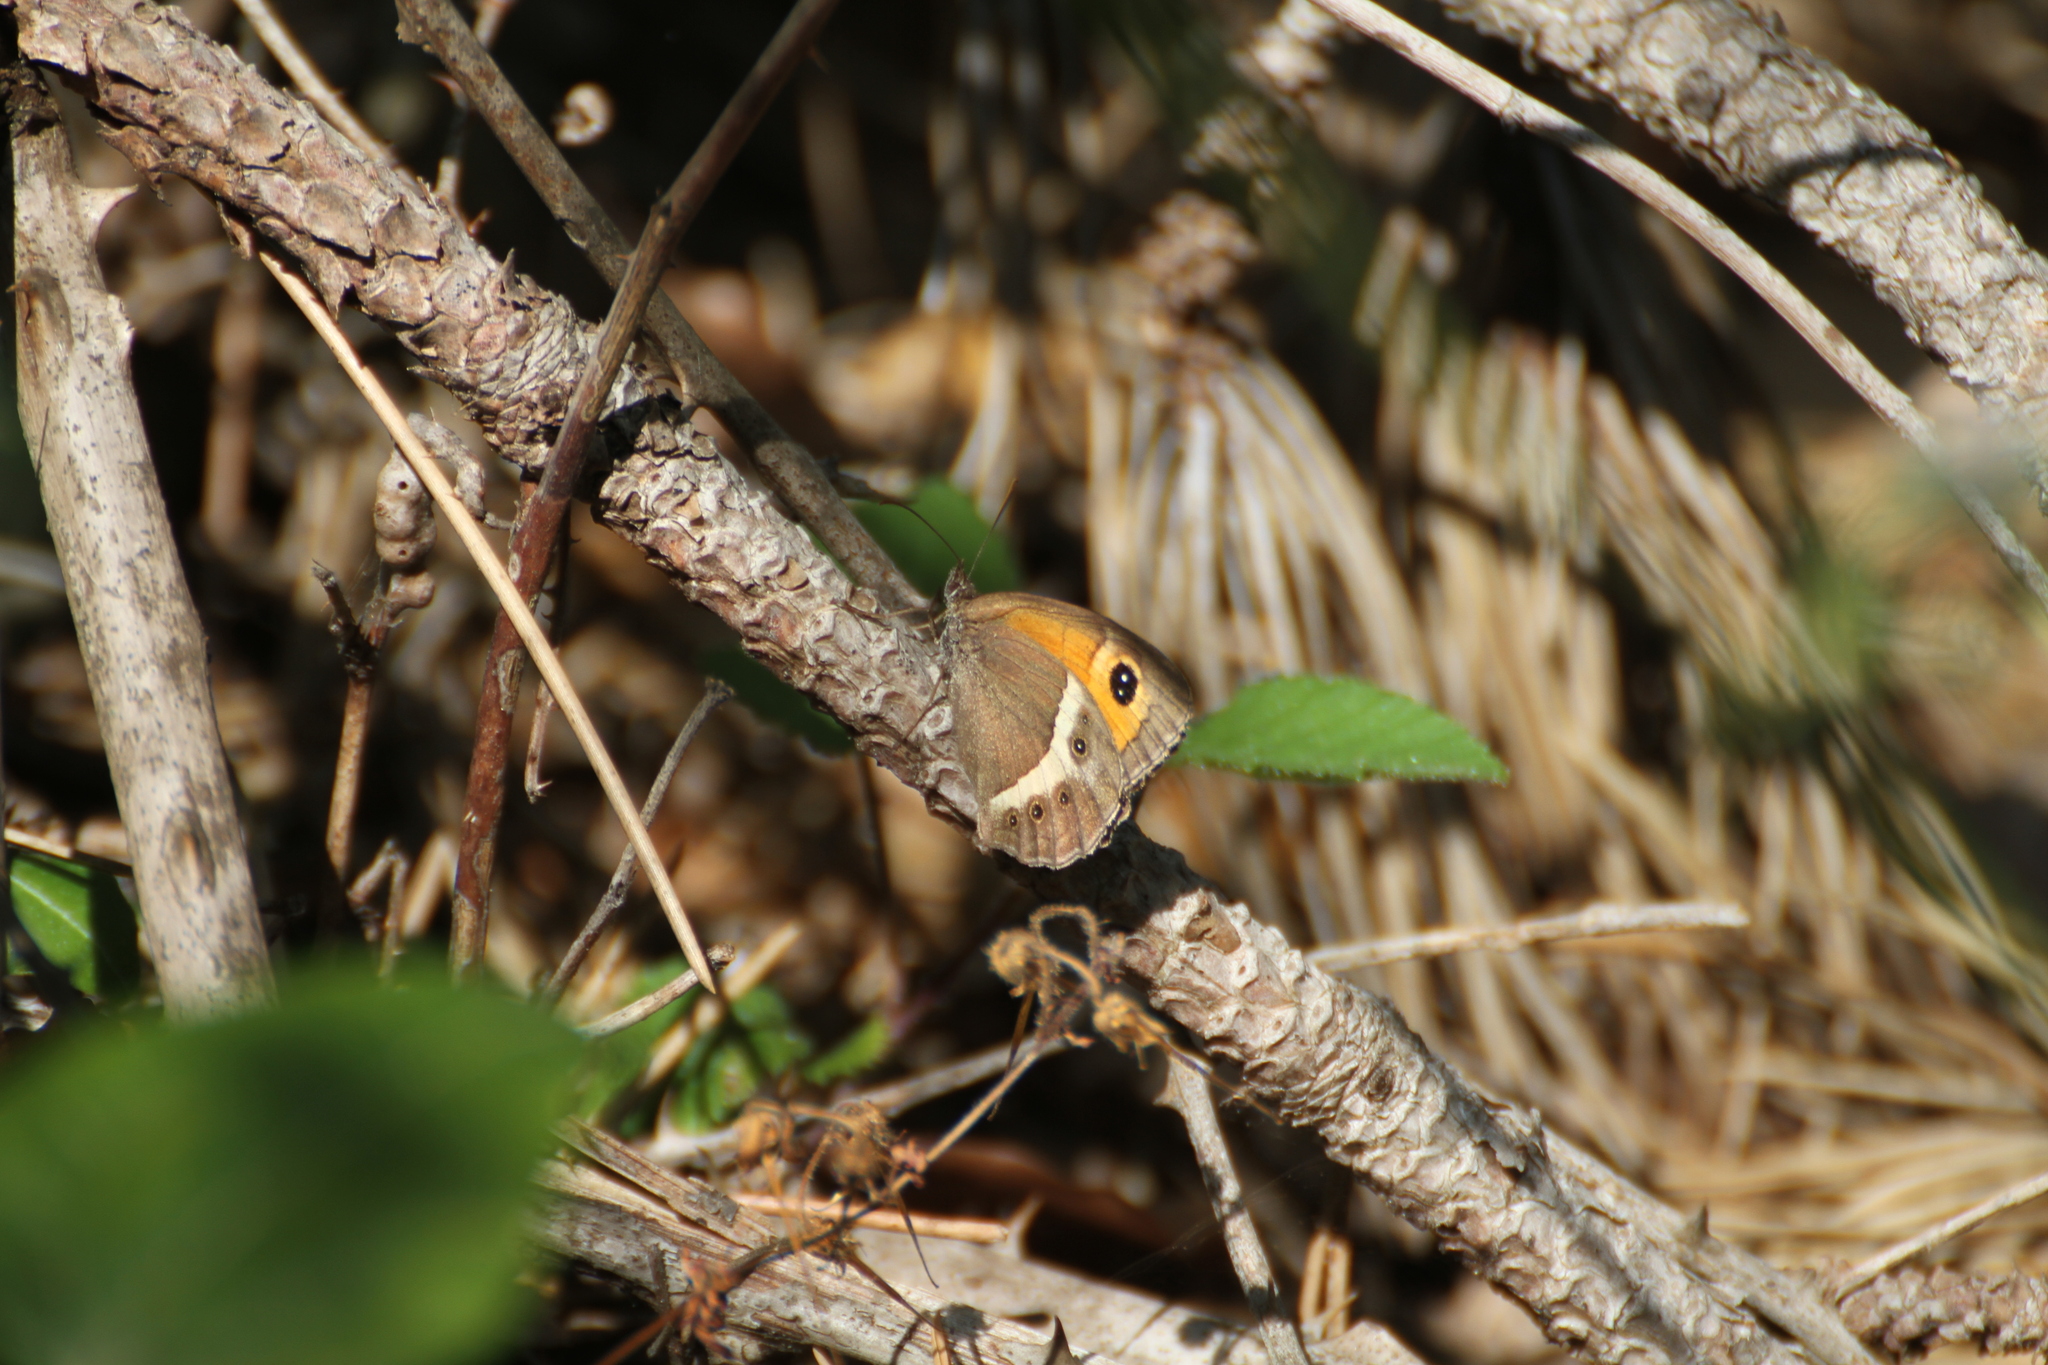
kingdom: Animalia
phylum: Arthropoda
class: Insecta
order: Lepidoptera
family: Nymphalidae
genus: Pyronia
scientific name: Pyronia bathseba
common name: Spanish gatekeeper
